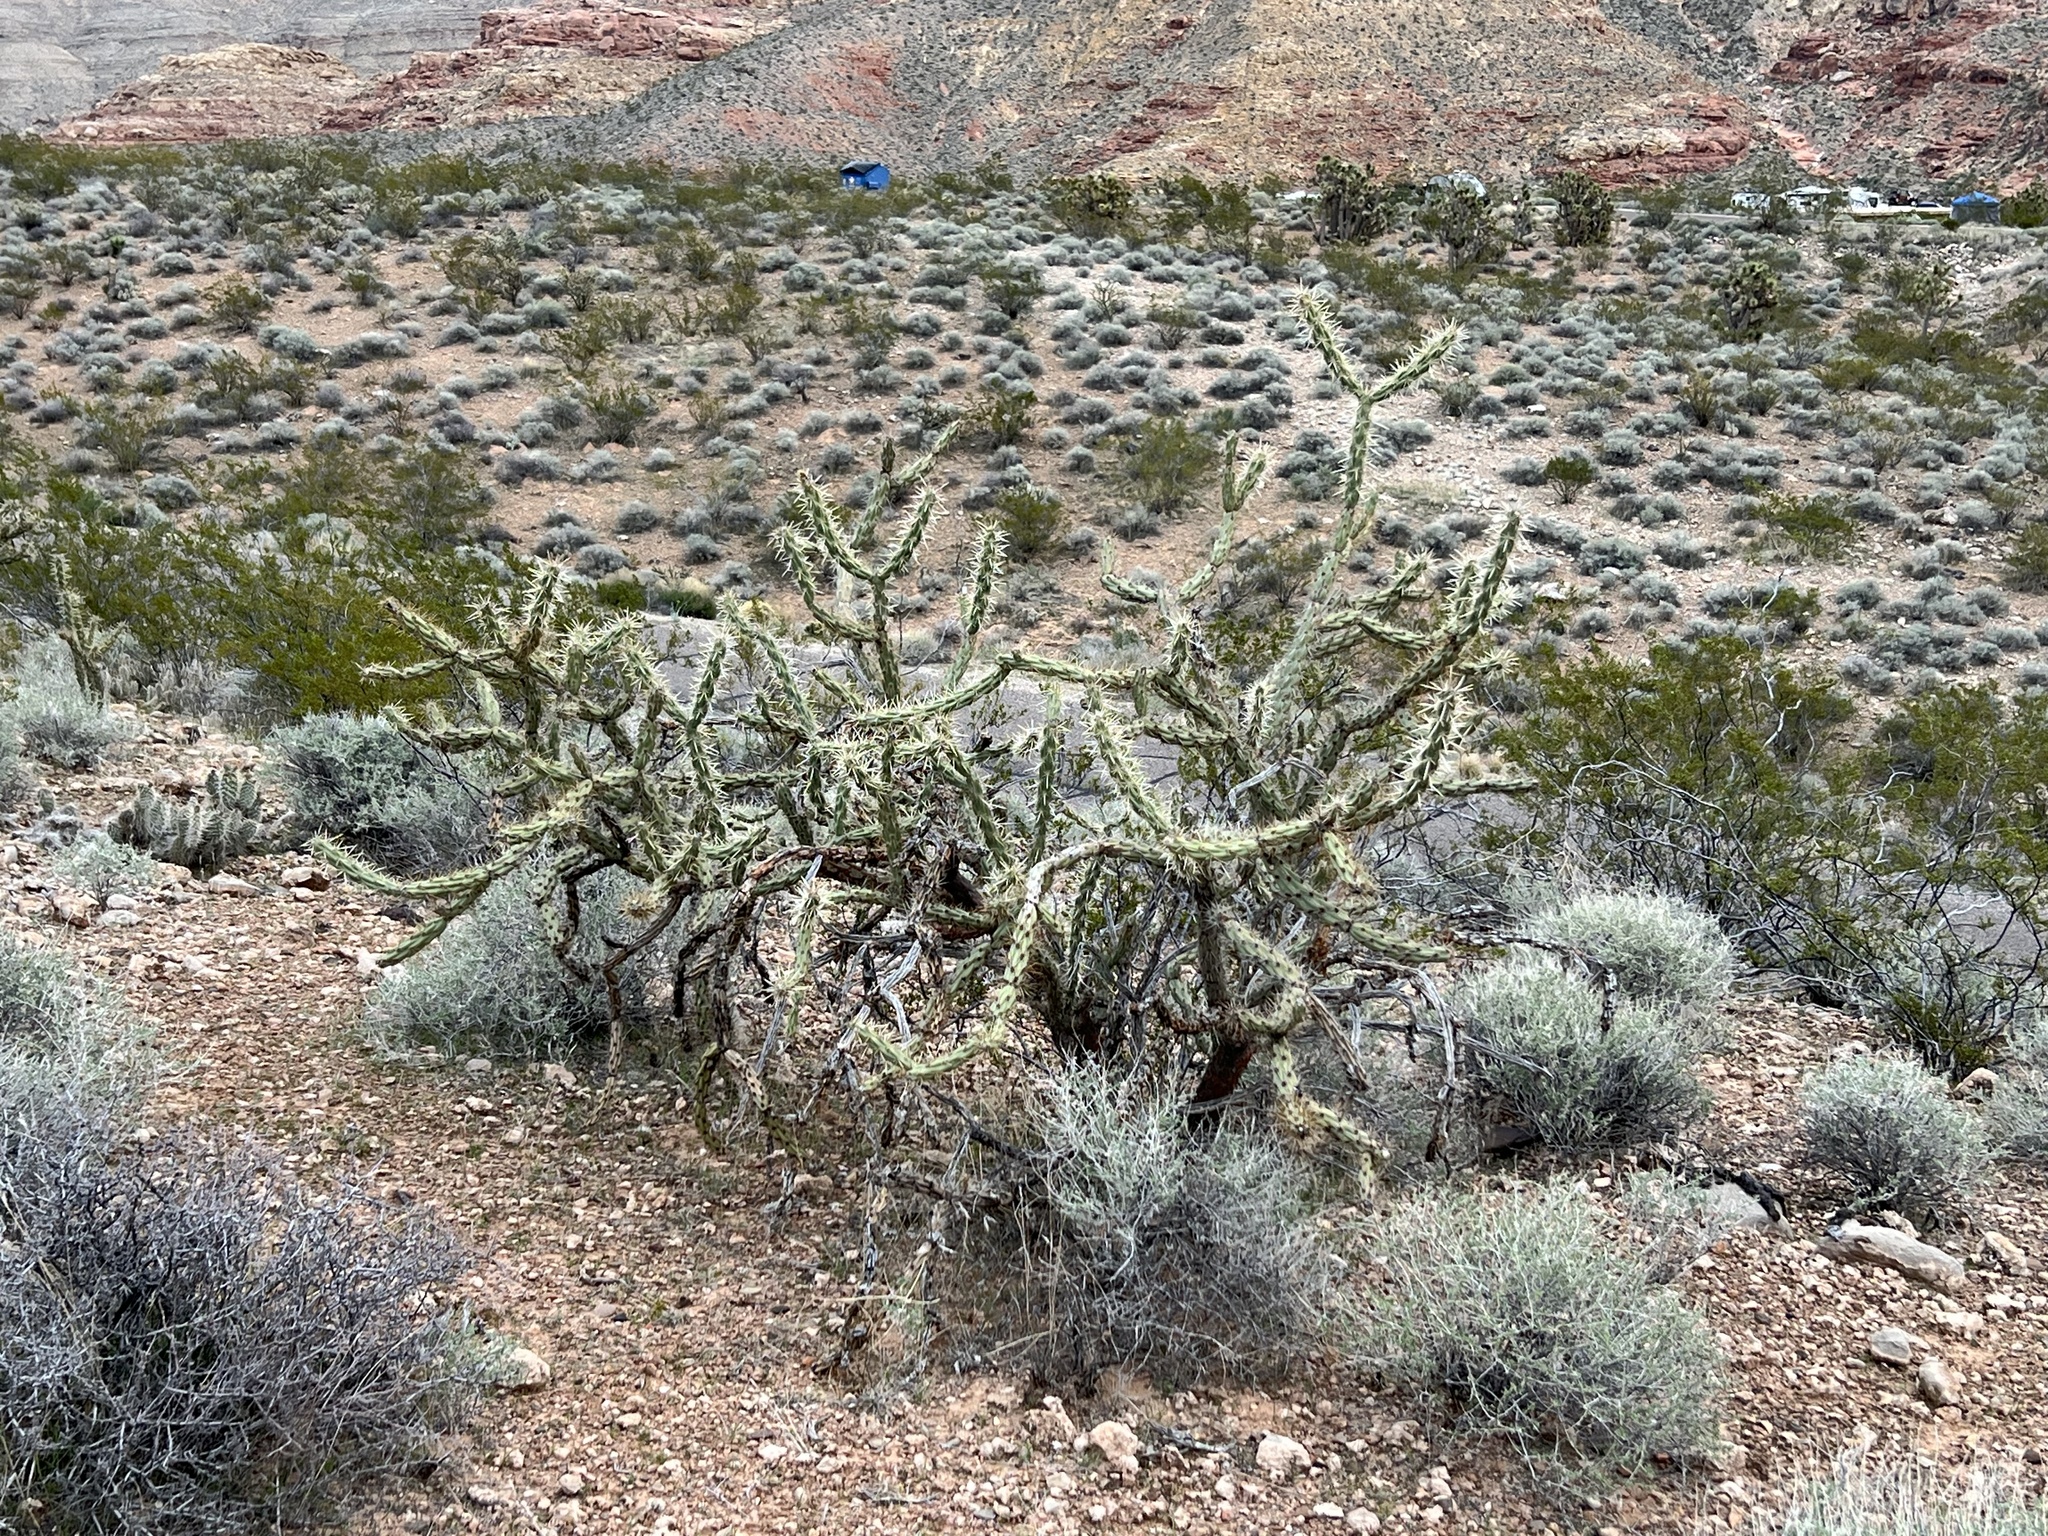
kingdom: Plantae
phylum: Tracheophyta
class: Magnoliopsida
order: Caryophyllales
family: Cactaceae
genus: Cylindropuntia
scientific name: Cylindropuntia acanthocarpa
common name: Buckhorn cholla
